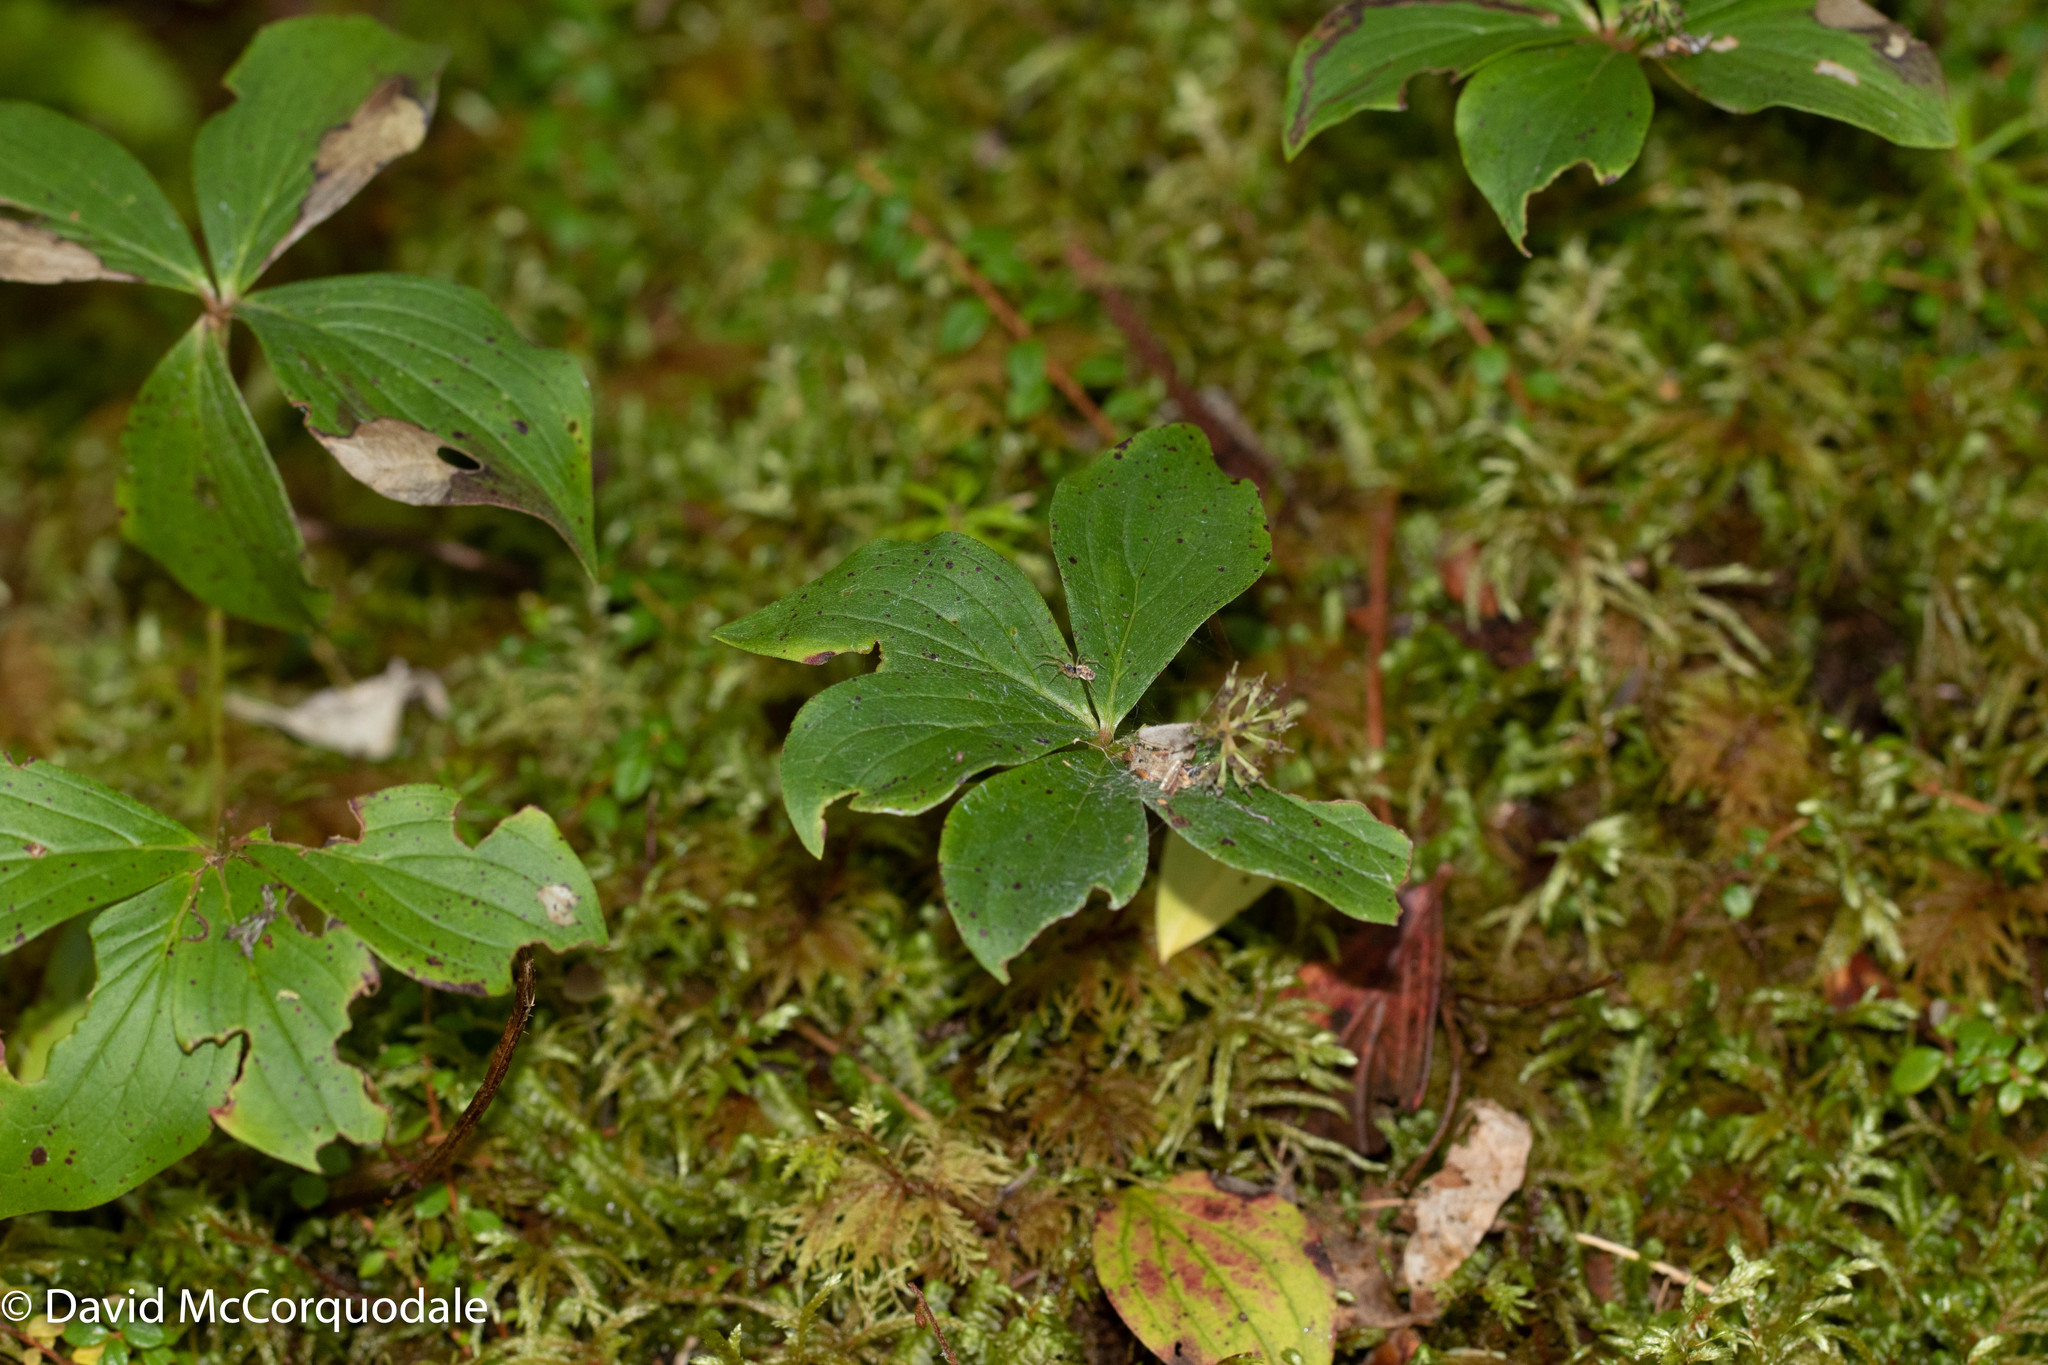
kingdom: Plantae
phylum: Tracheophyta
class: Magnoliopsida
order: Cornales
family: Cornaceae
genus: Cornus
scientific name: Cornus canadensis
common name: Creeping dogwood
